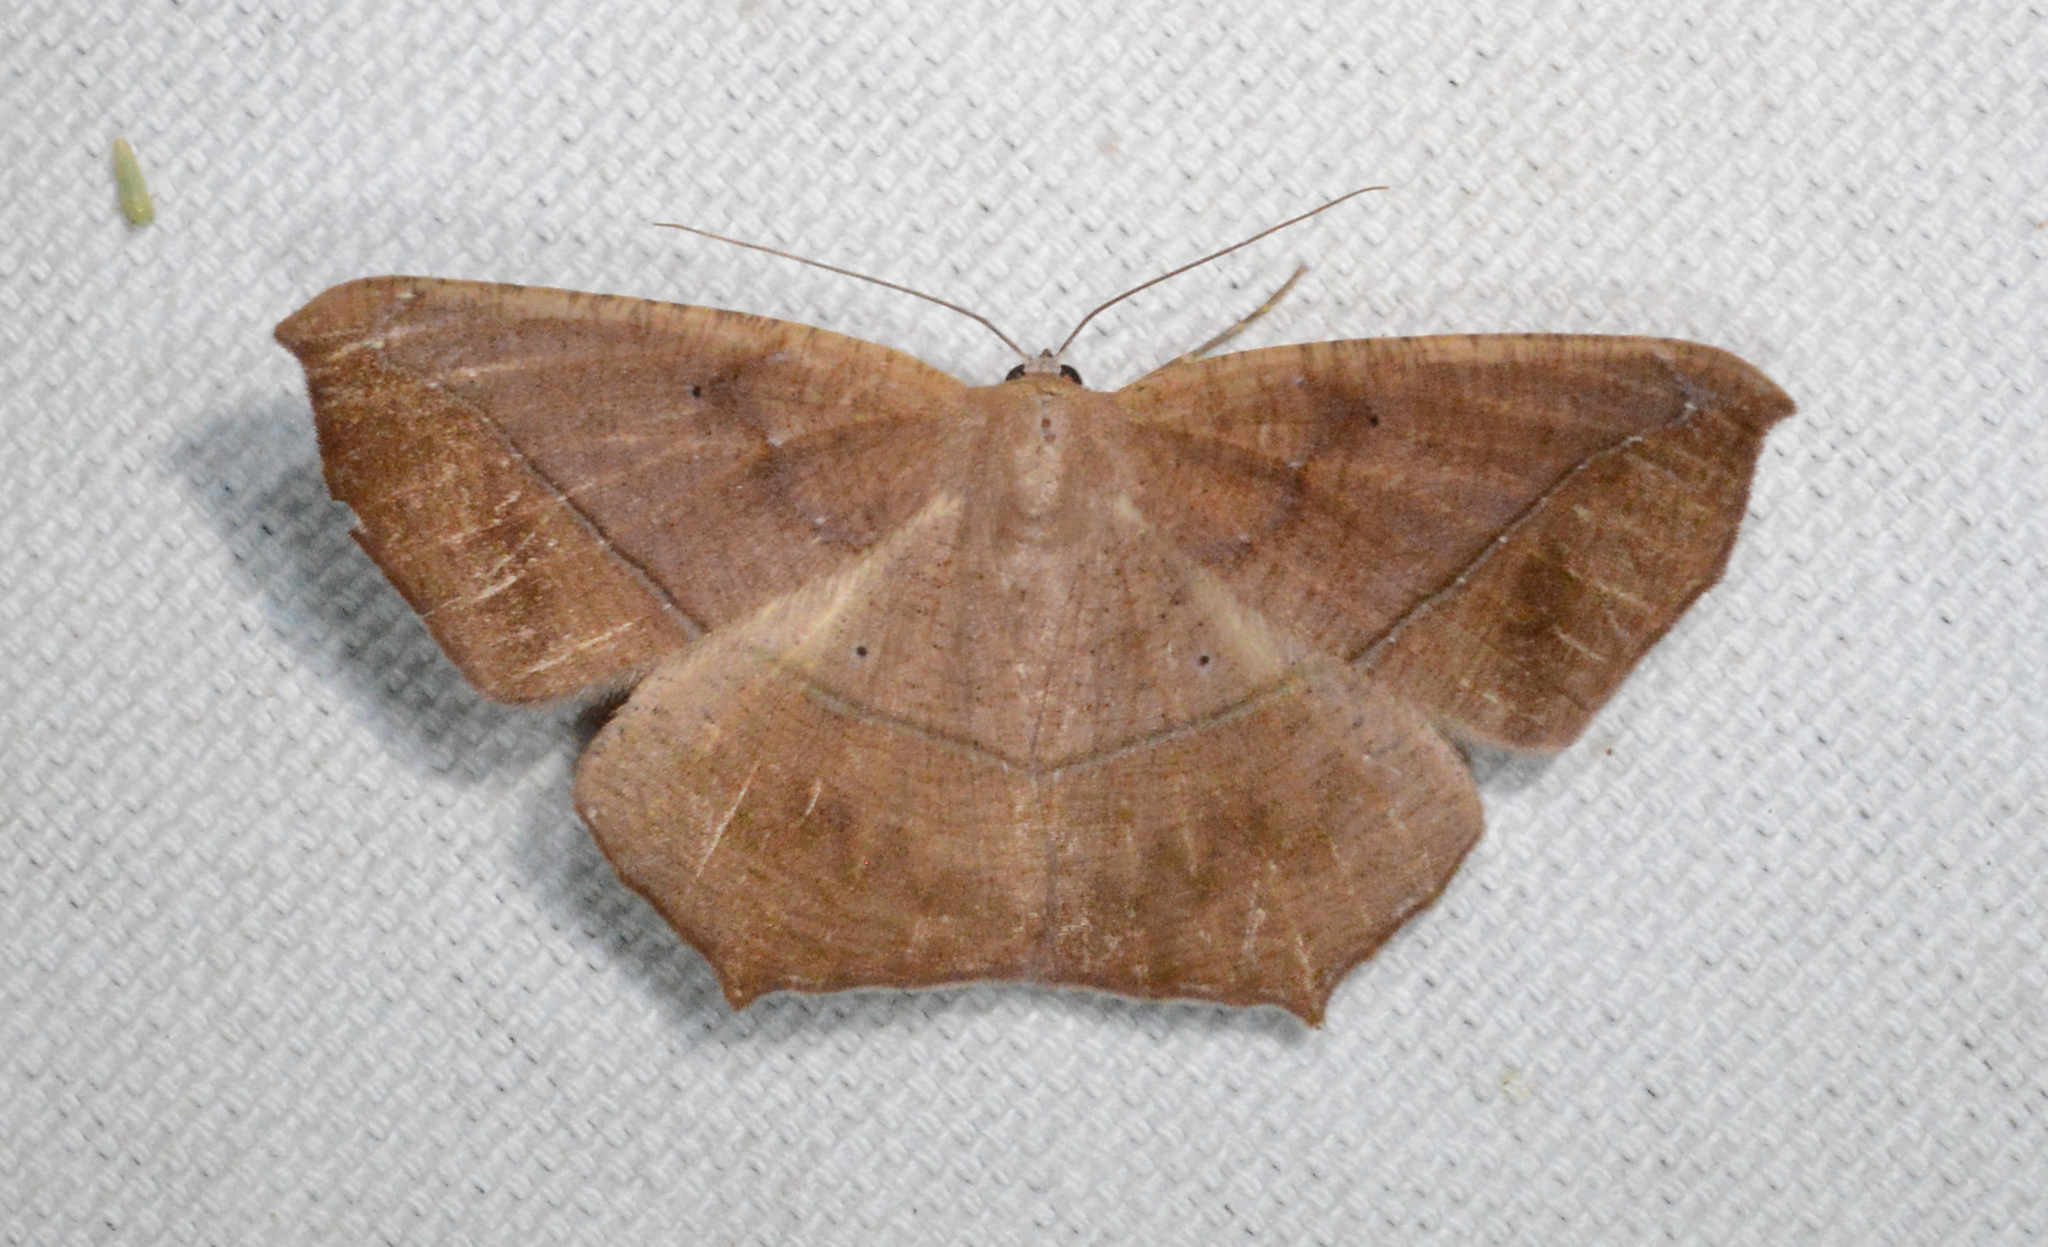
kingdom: Animalia
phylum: Arthropoda
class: Insecta
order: Lepidoptera
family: Geometridae
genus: Prochoerodes
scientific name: Prochoerodes lineola
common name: Large maple spanworm
